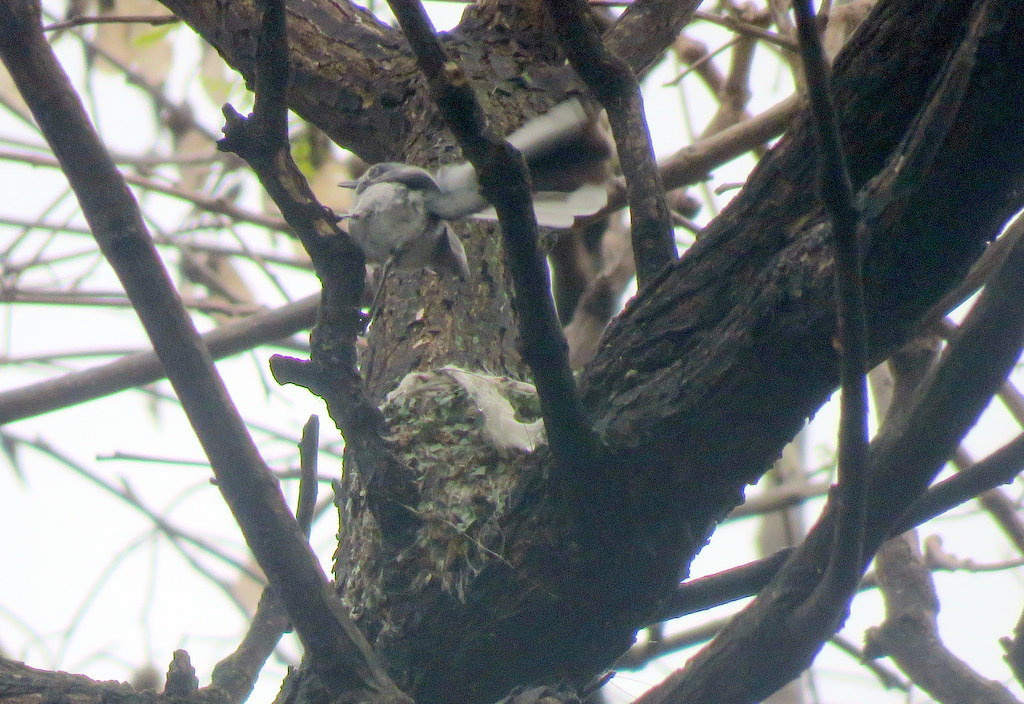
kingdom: Animalia
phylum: Chordata
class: Aves
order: Passeriformes
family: Polioptilidae
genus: Polioptila
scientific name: Polioptila dumicola
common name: Masked gnatcatcher
